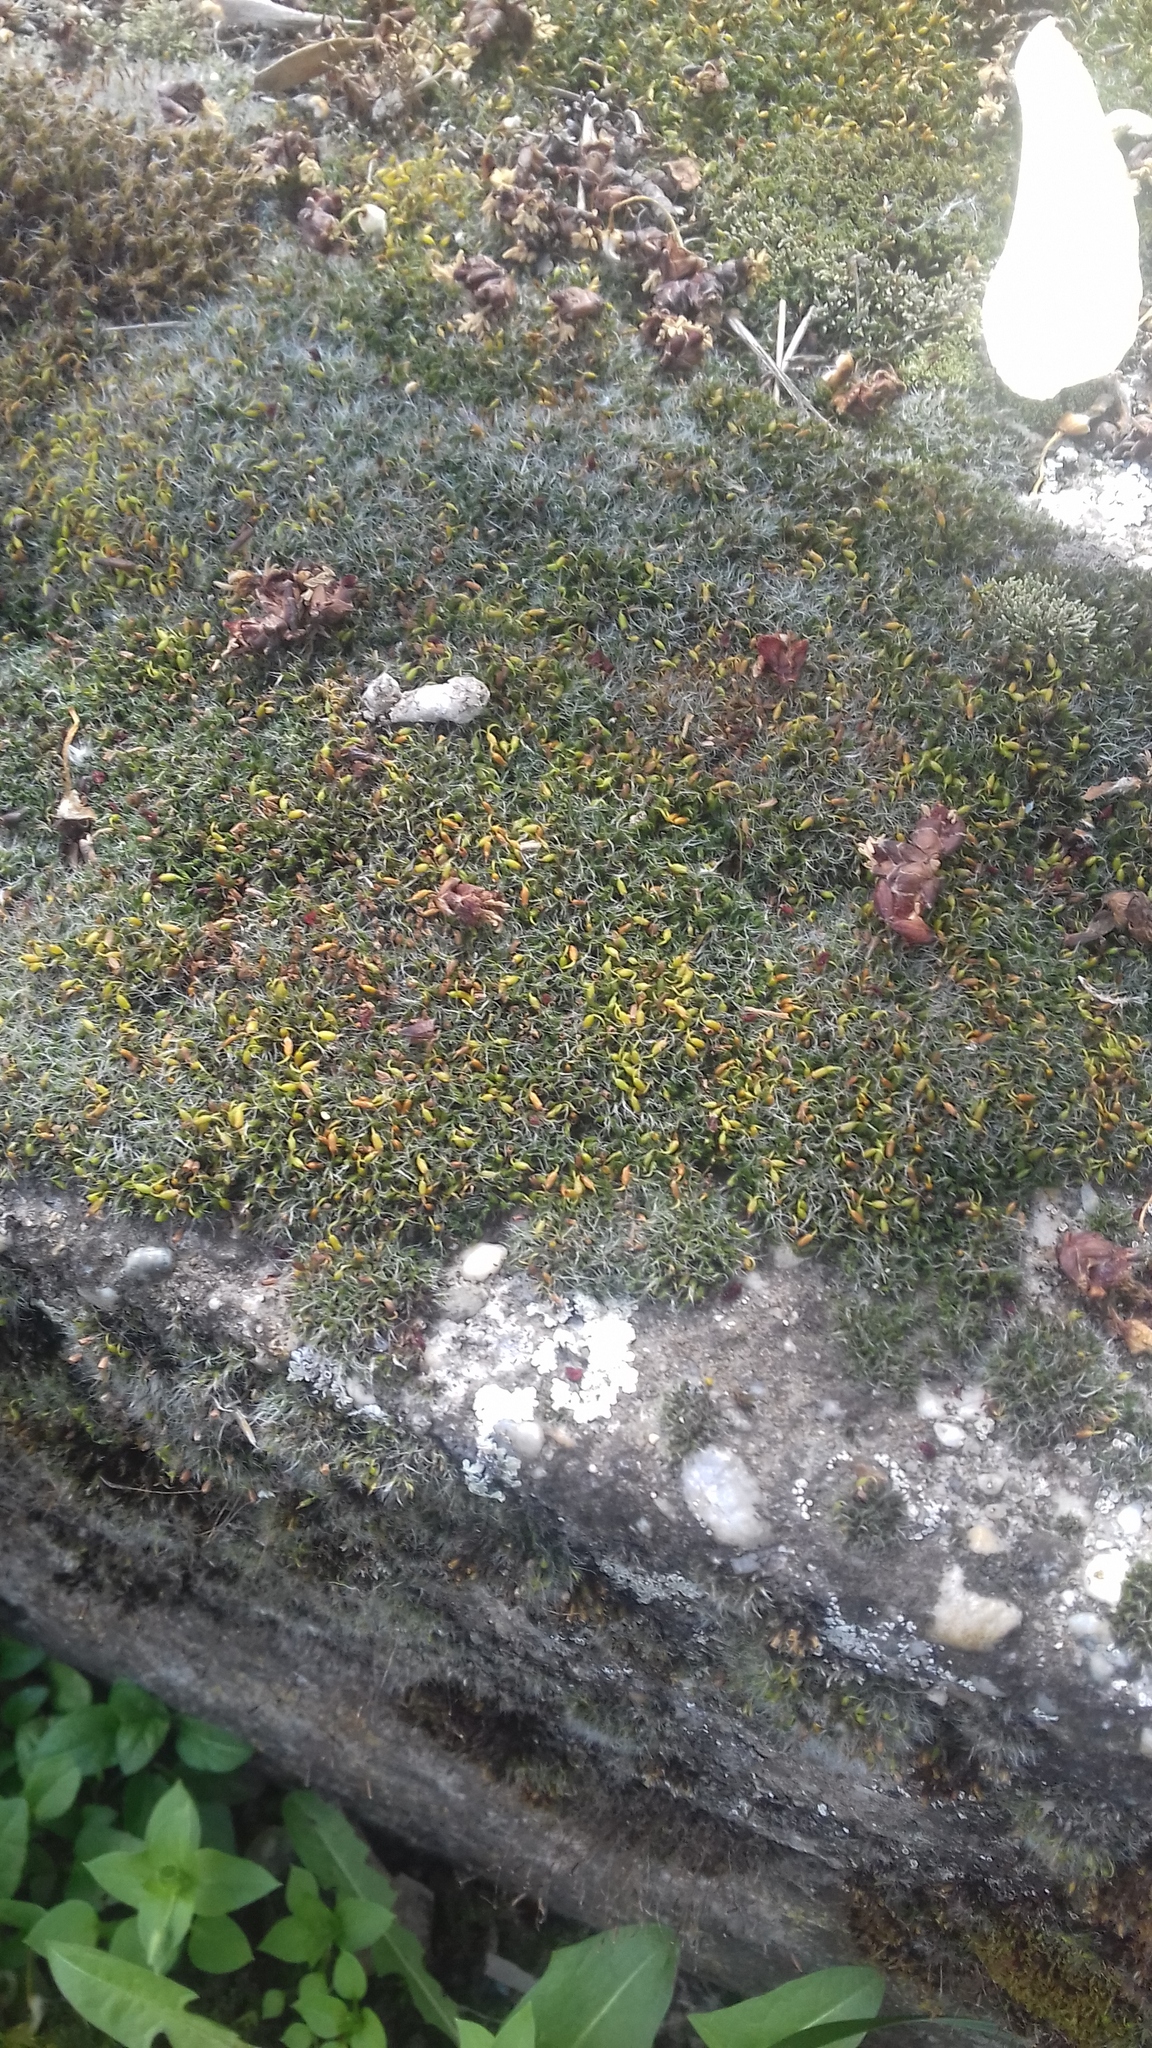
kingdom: Plantae
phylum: Bryophyta
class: Bryopsida
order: Grimmiales
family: Grimmiaceae
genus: Grimmia
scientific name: Grimmia pulvinata
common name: Grey-cushioned grimmia
